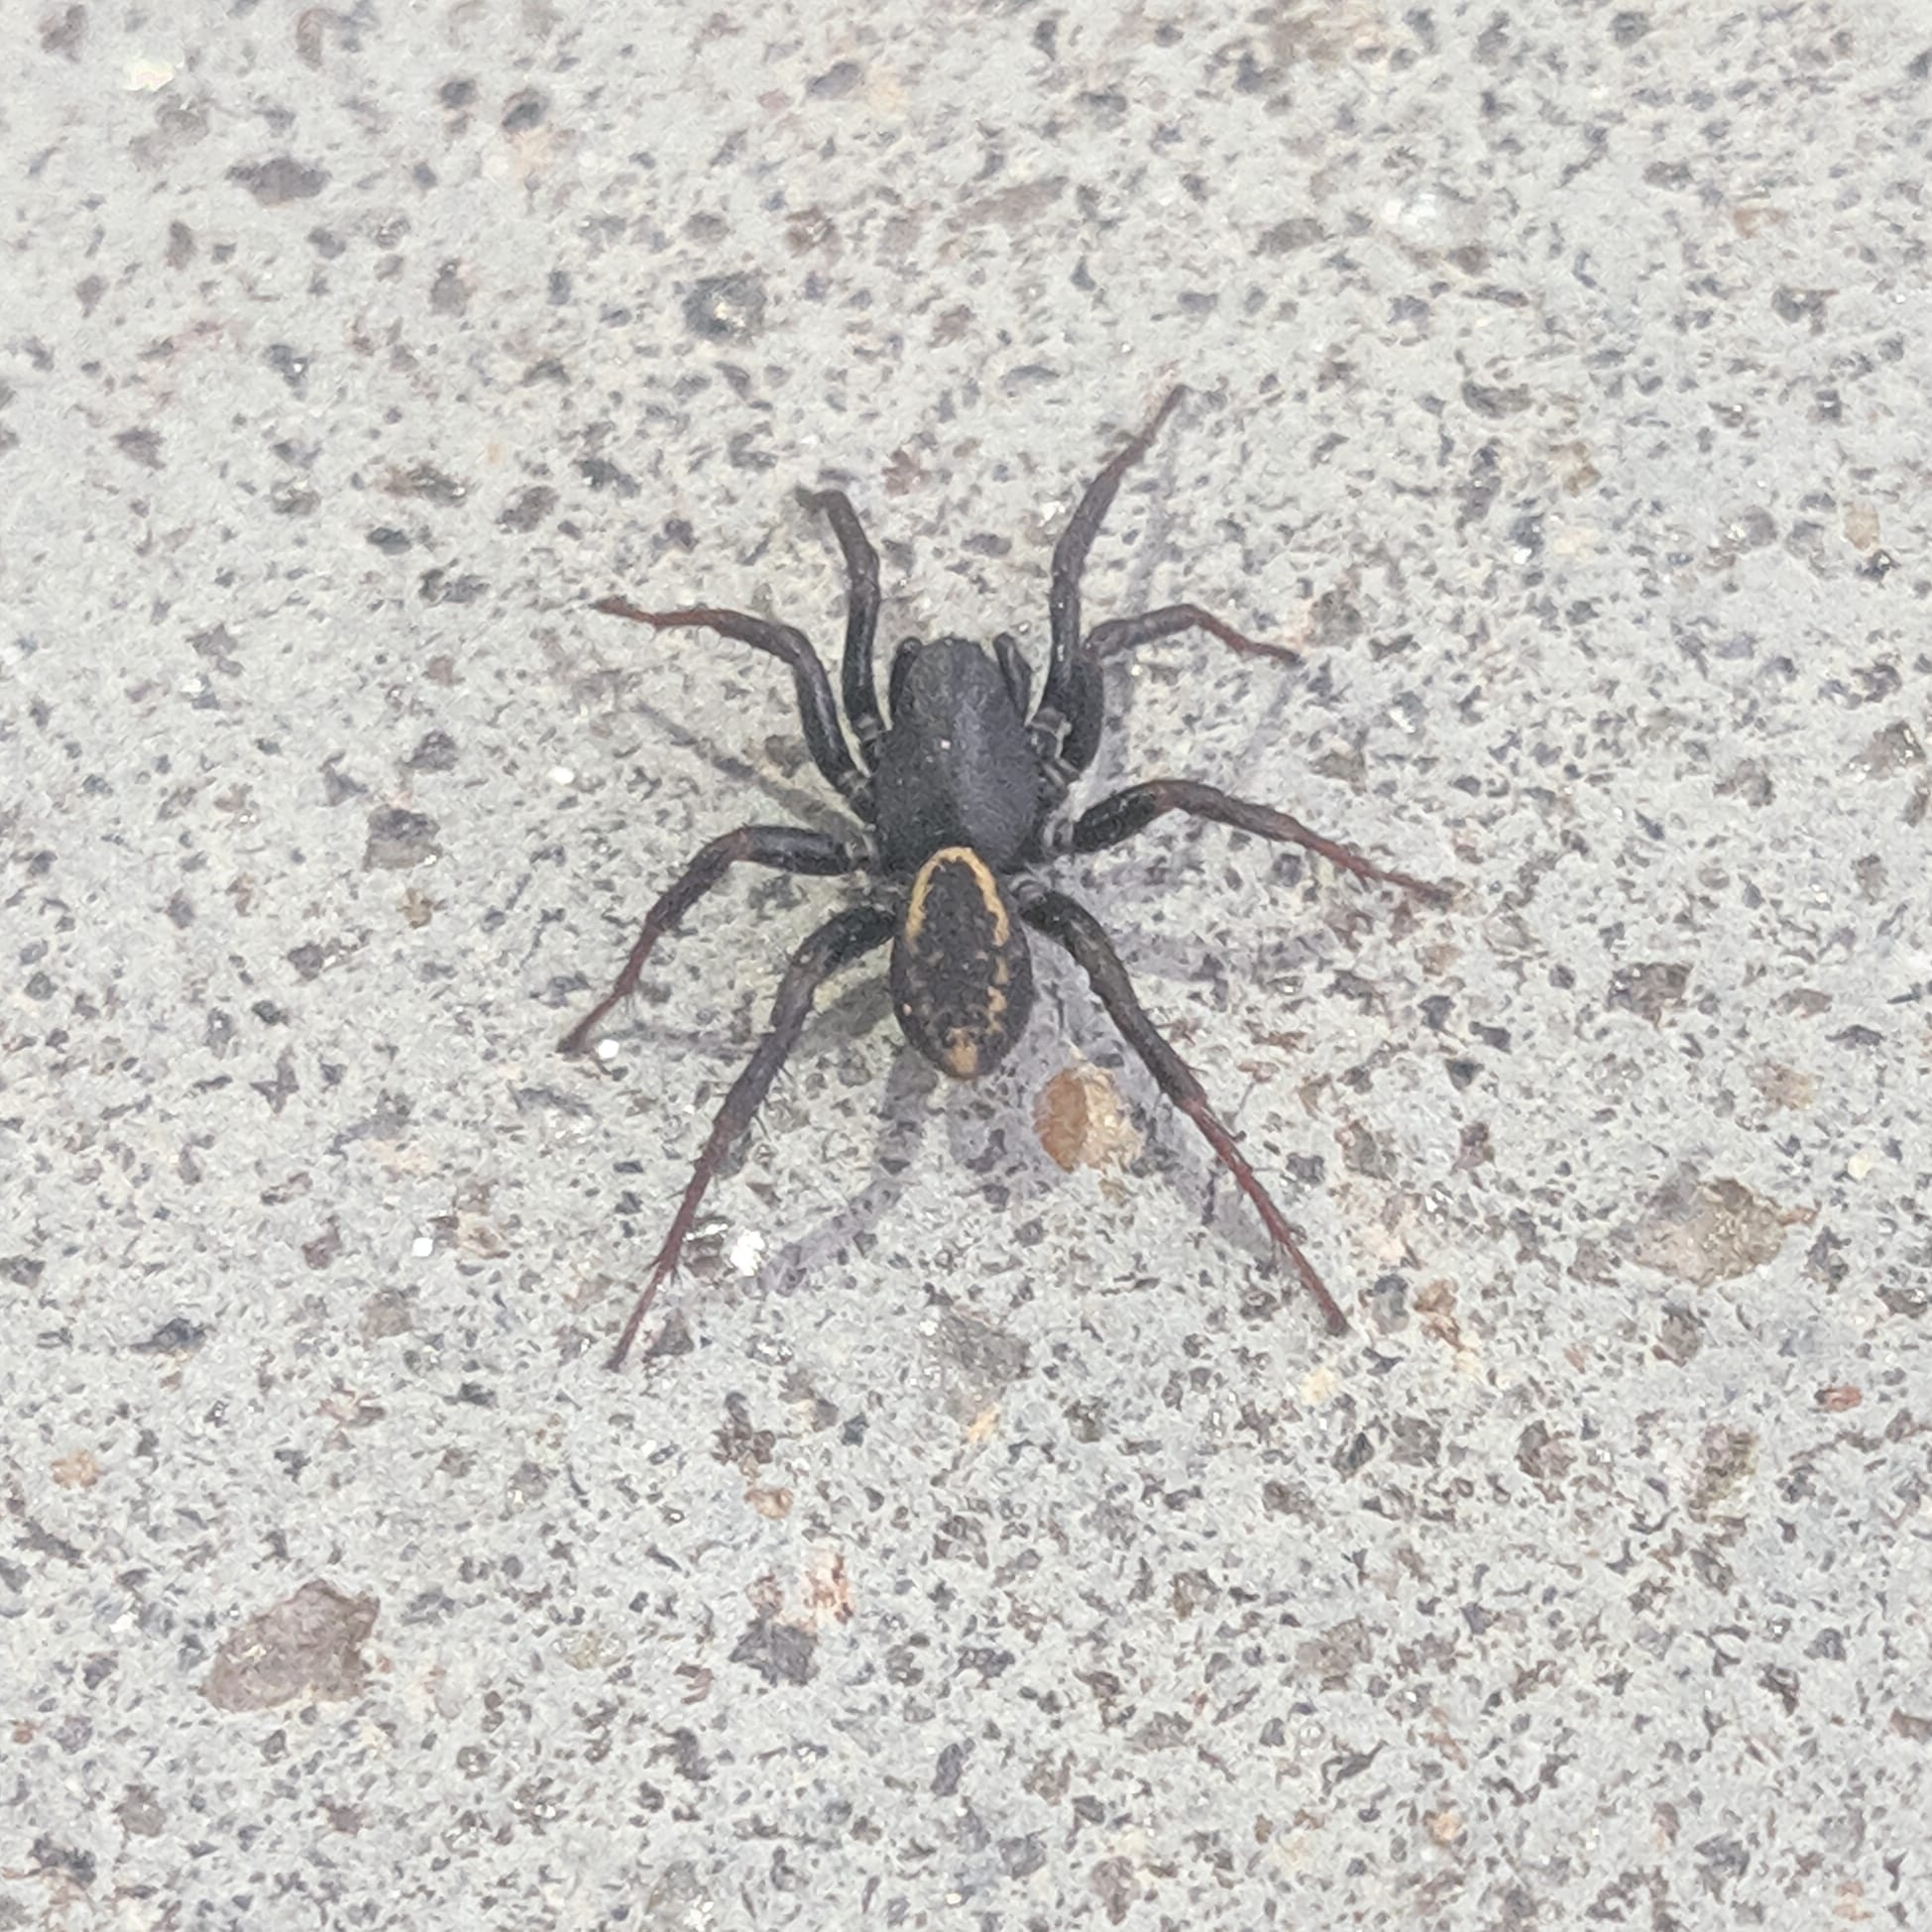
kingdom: Animalia
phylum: Arthropoda
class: Arachnida
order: Araneae
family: Zodariidae
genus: Cybaeodamus
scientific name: Cybaeodamus meridionalis
